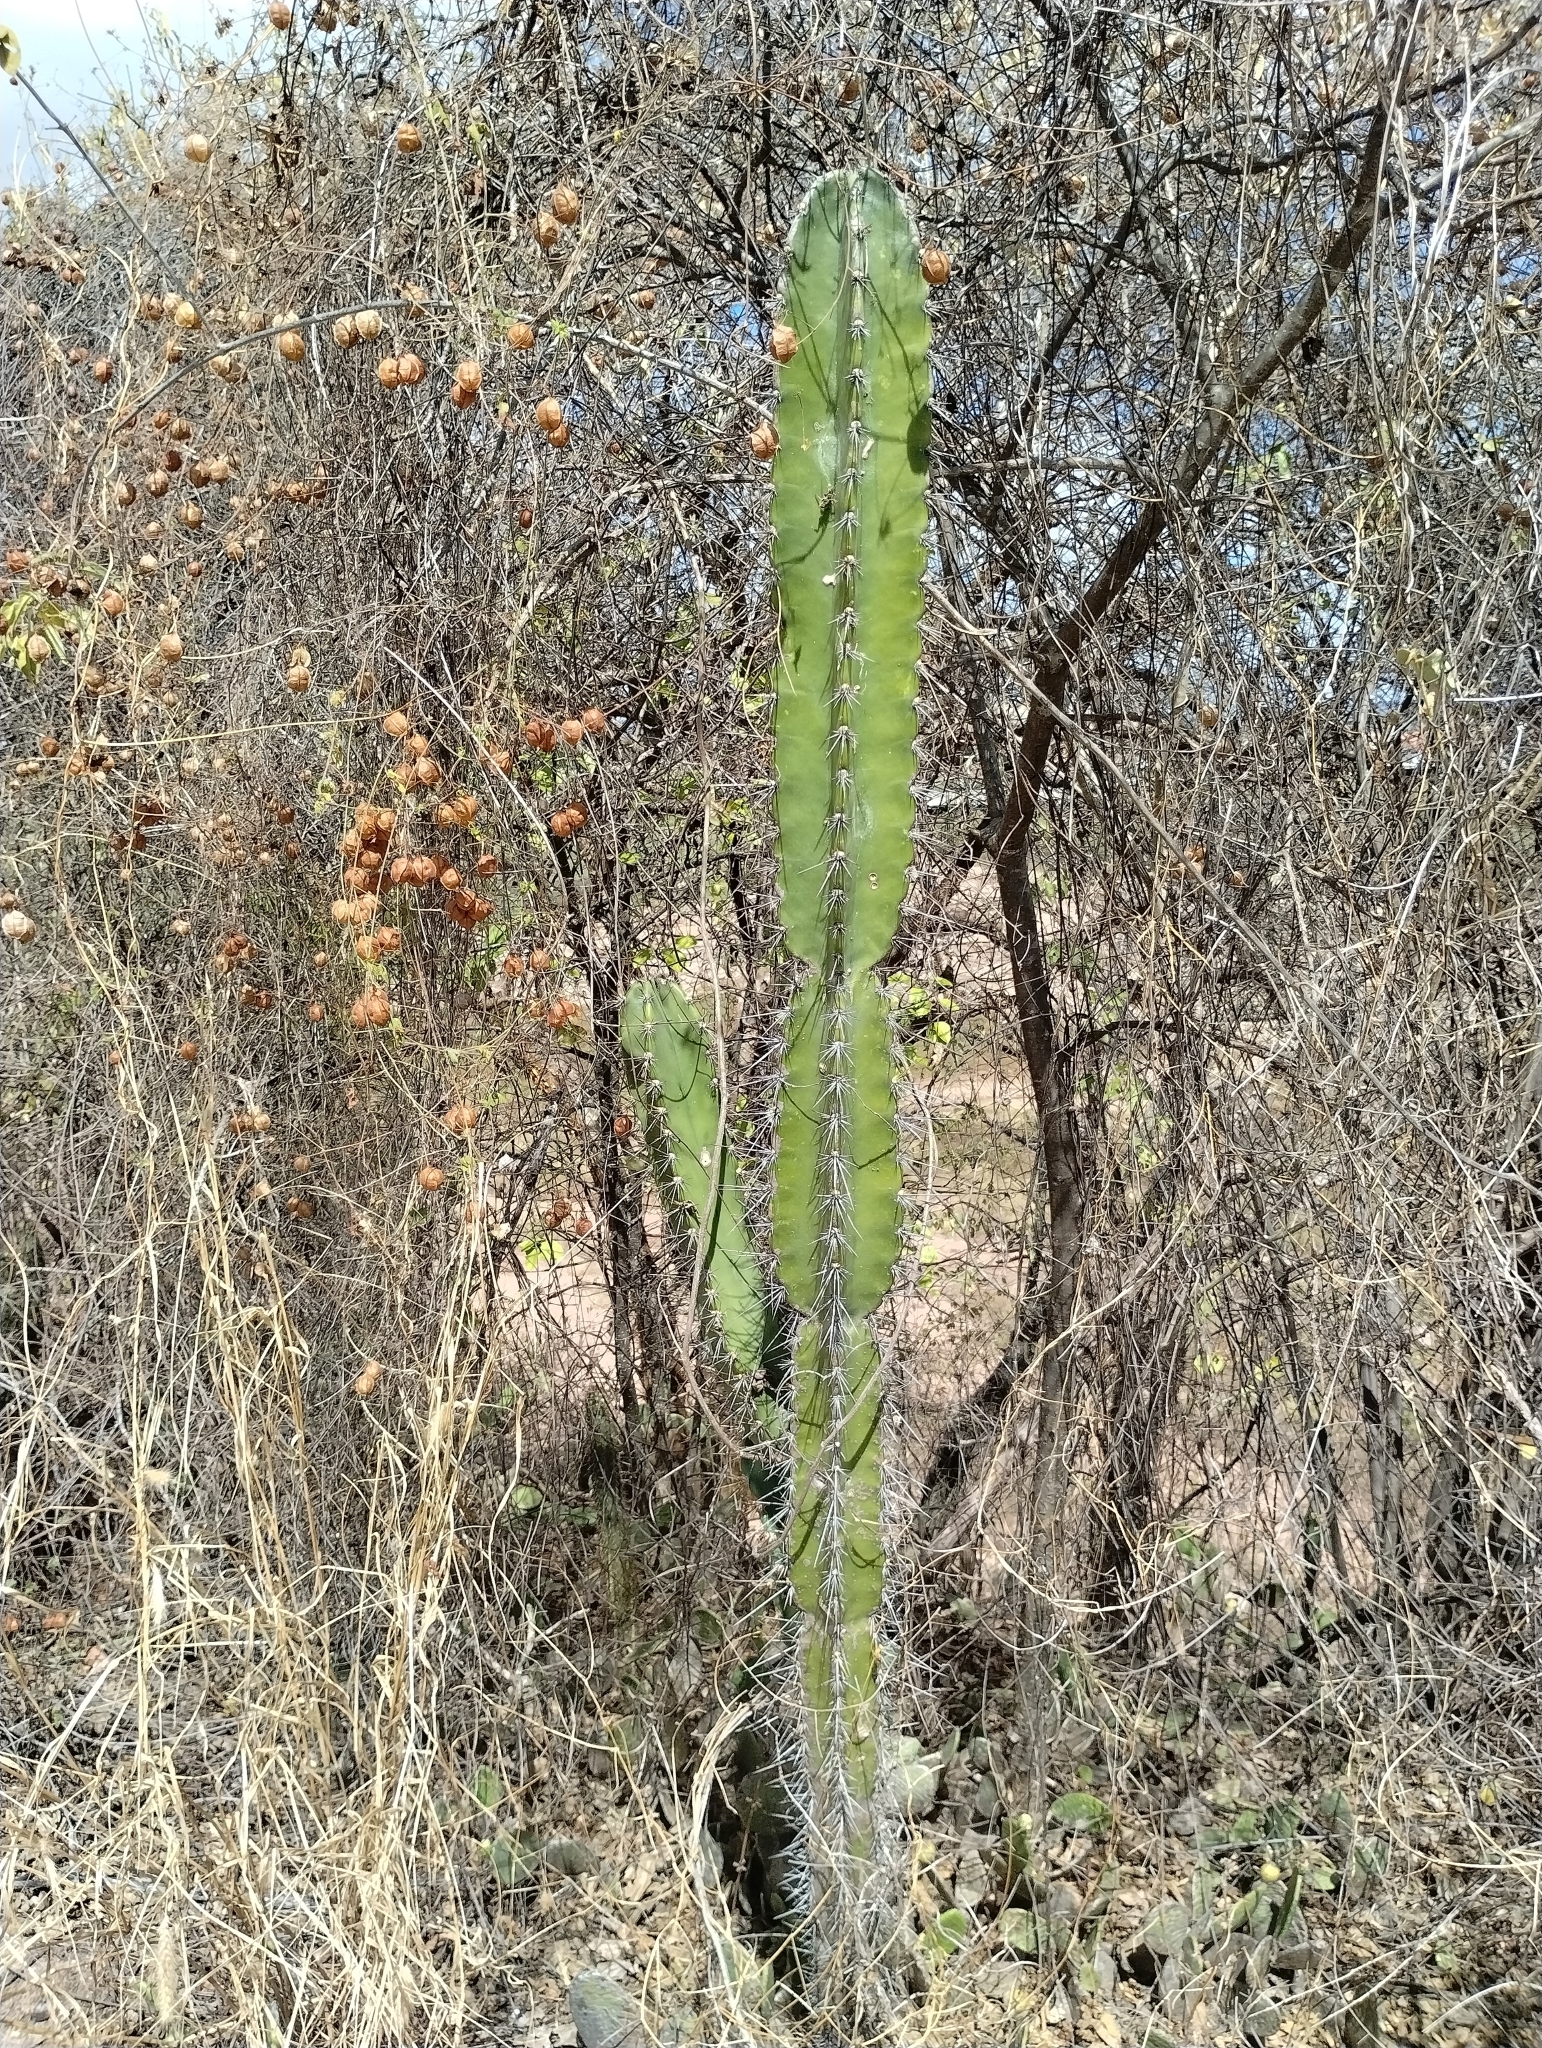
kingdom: Plantae
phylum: Tracheophyta
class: Magnoliopsida
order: Caryophyllales
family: Cactaceae
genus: Cereus
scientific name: Cereus jamacaru
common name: Queen-of-the-night
